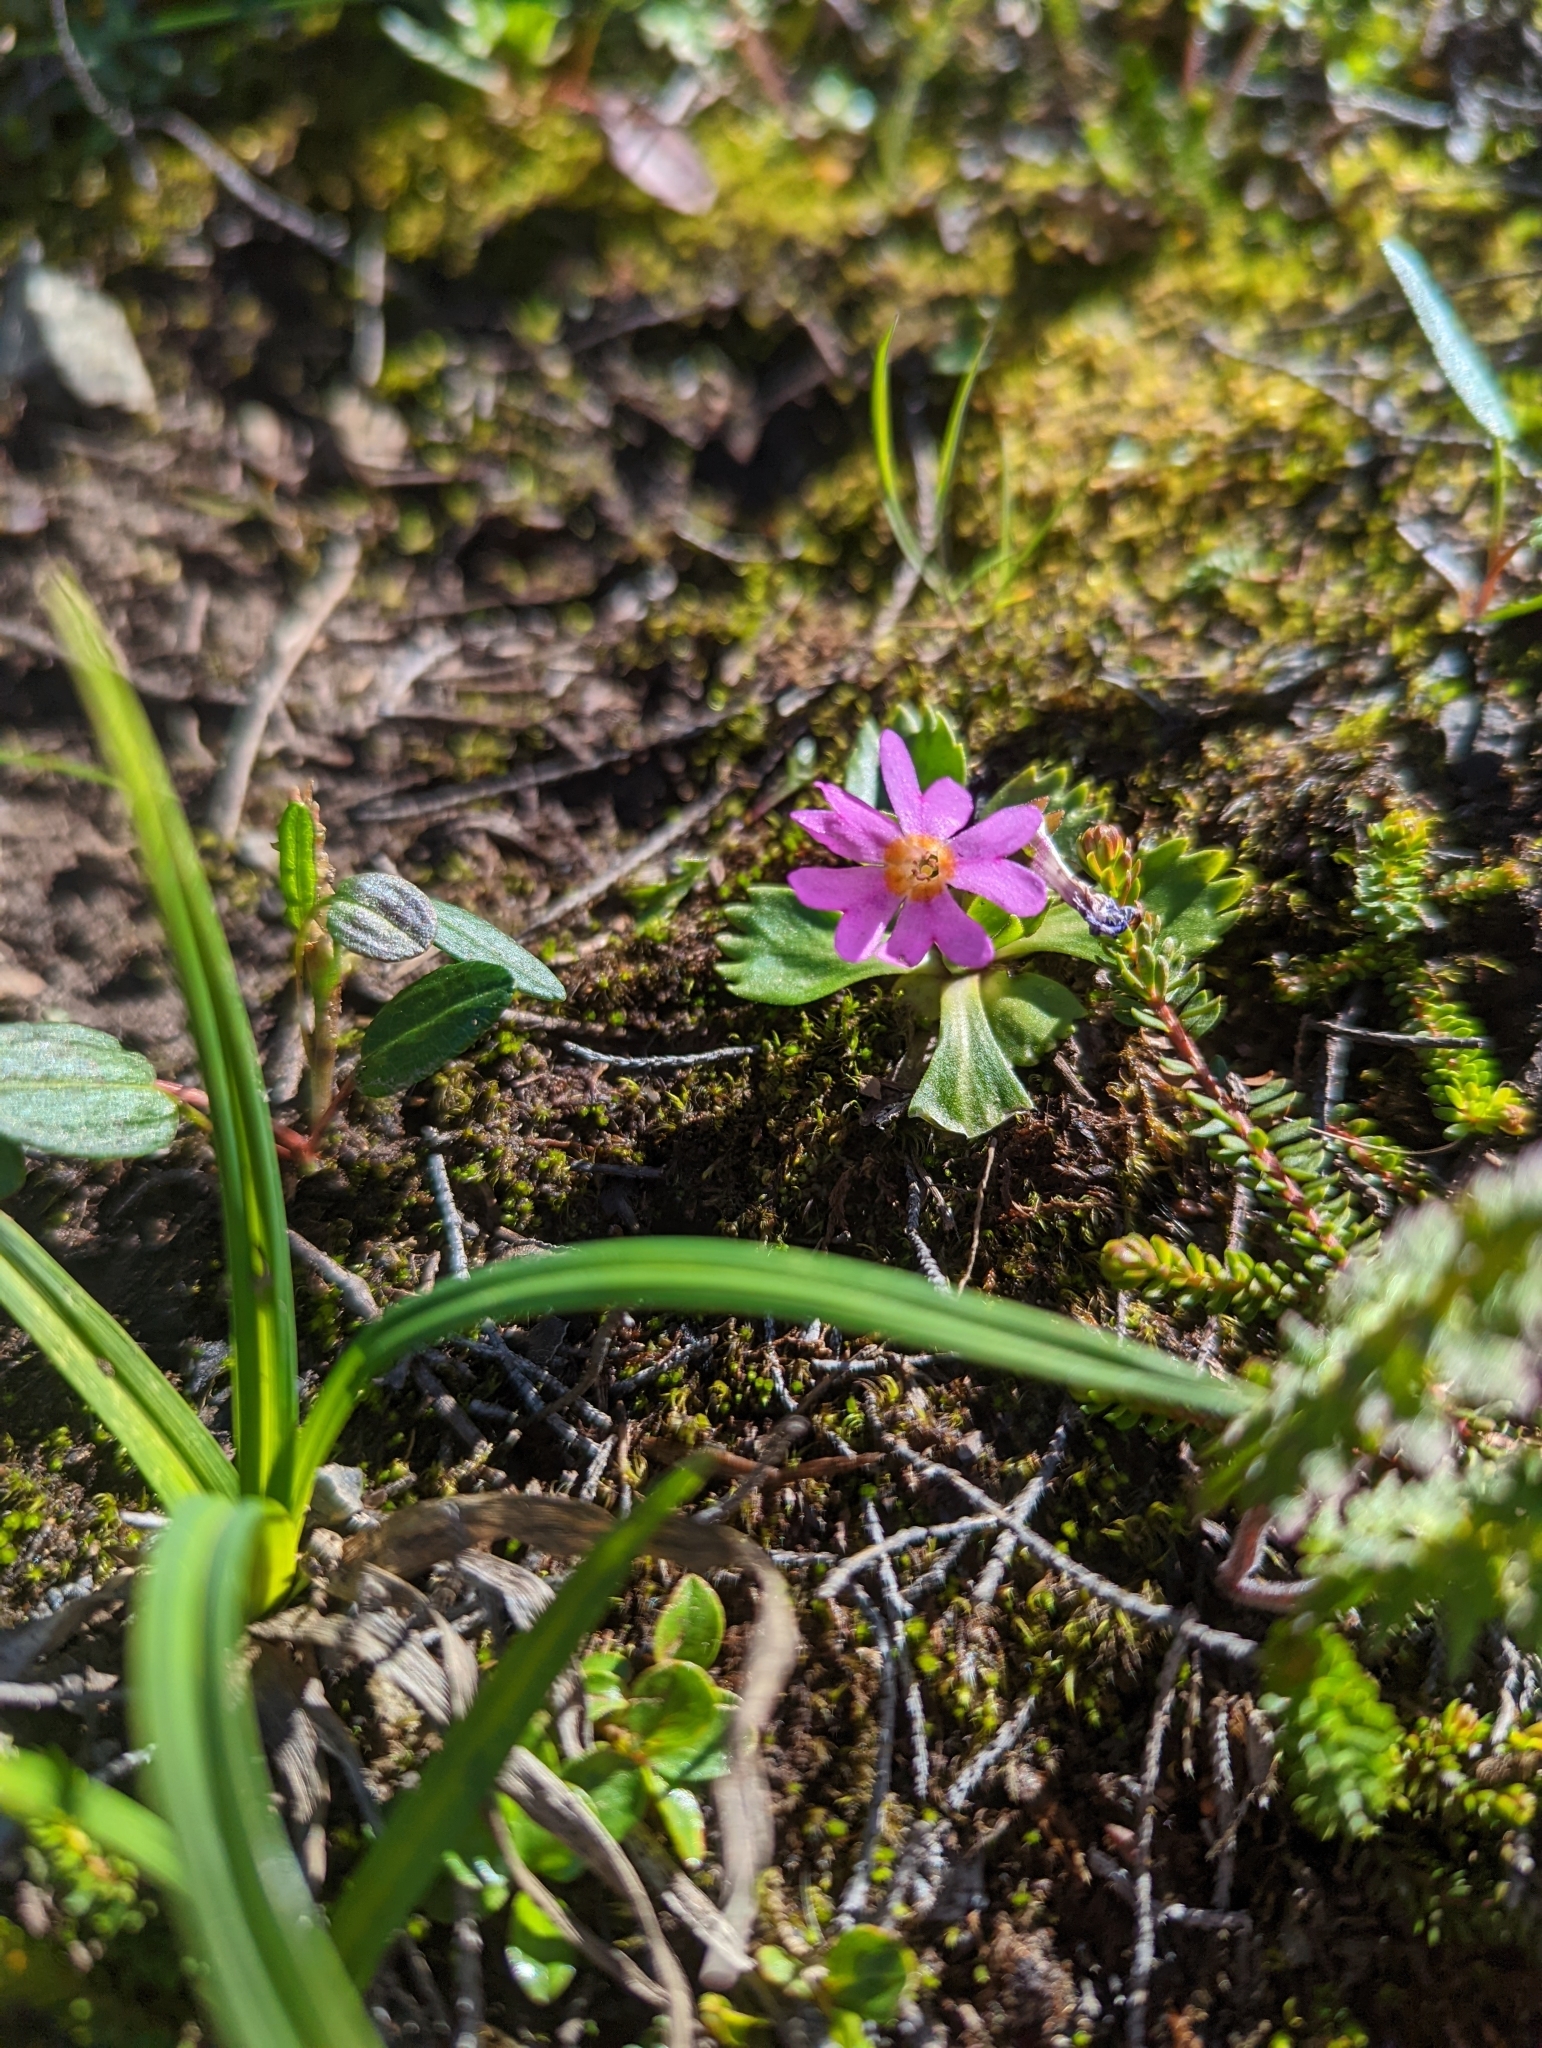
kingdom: Plantae
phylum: Tracheophyta
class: Magnoliopsida
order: Ericales
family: Primulaceae
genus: Primula
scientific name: Primula cuneifolia
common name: Wedge-leaved primrose
